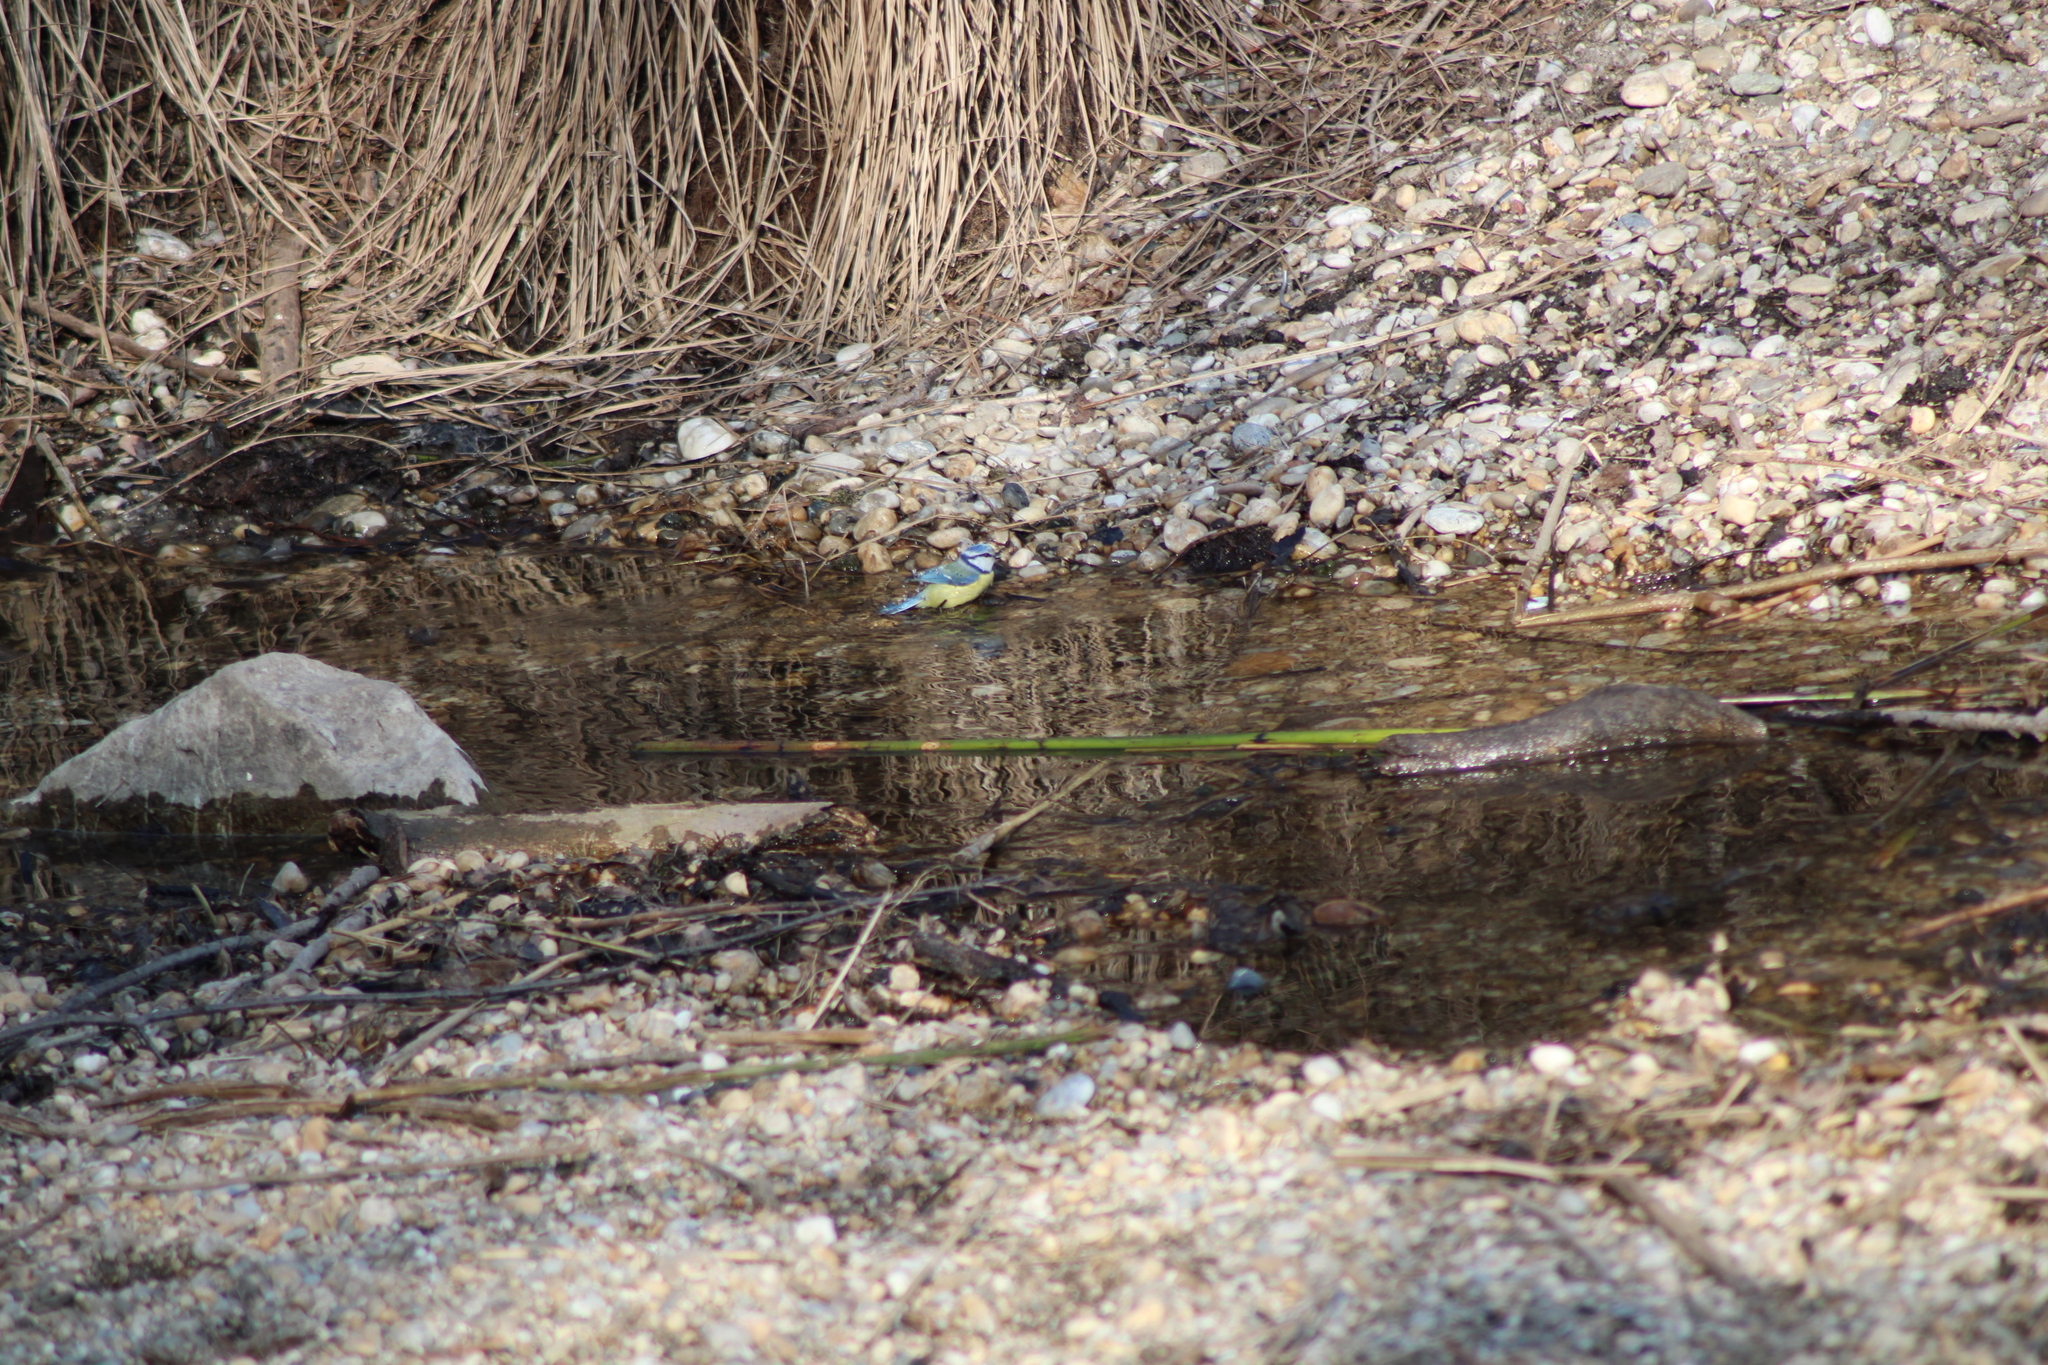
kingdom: Animalia
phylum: Chordata
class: Aves
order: Passeriformes
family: Paridae
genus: Cyanistes
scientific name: Cyanistes caeruleus
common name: Eurasian blue tit
